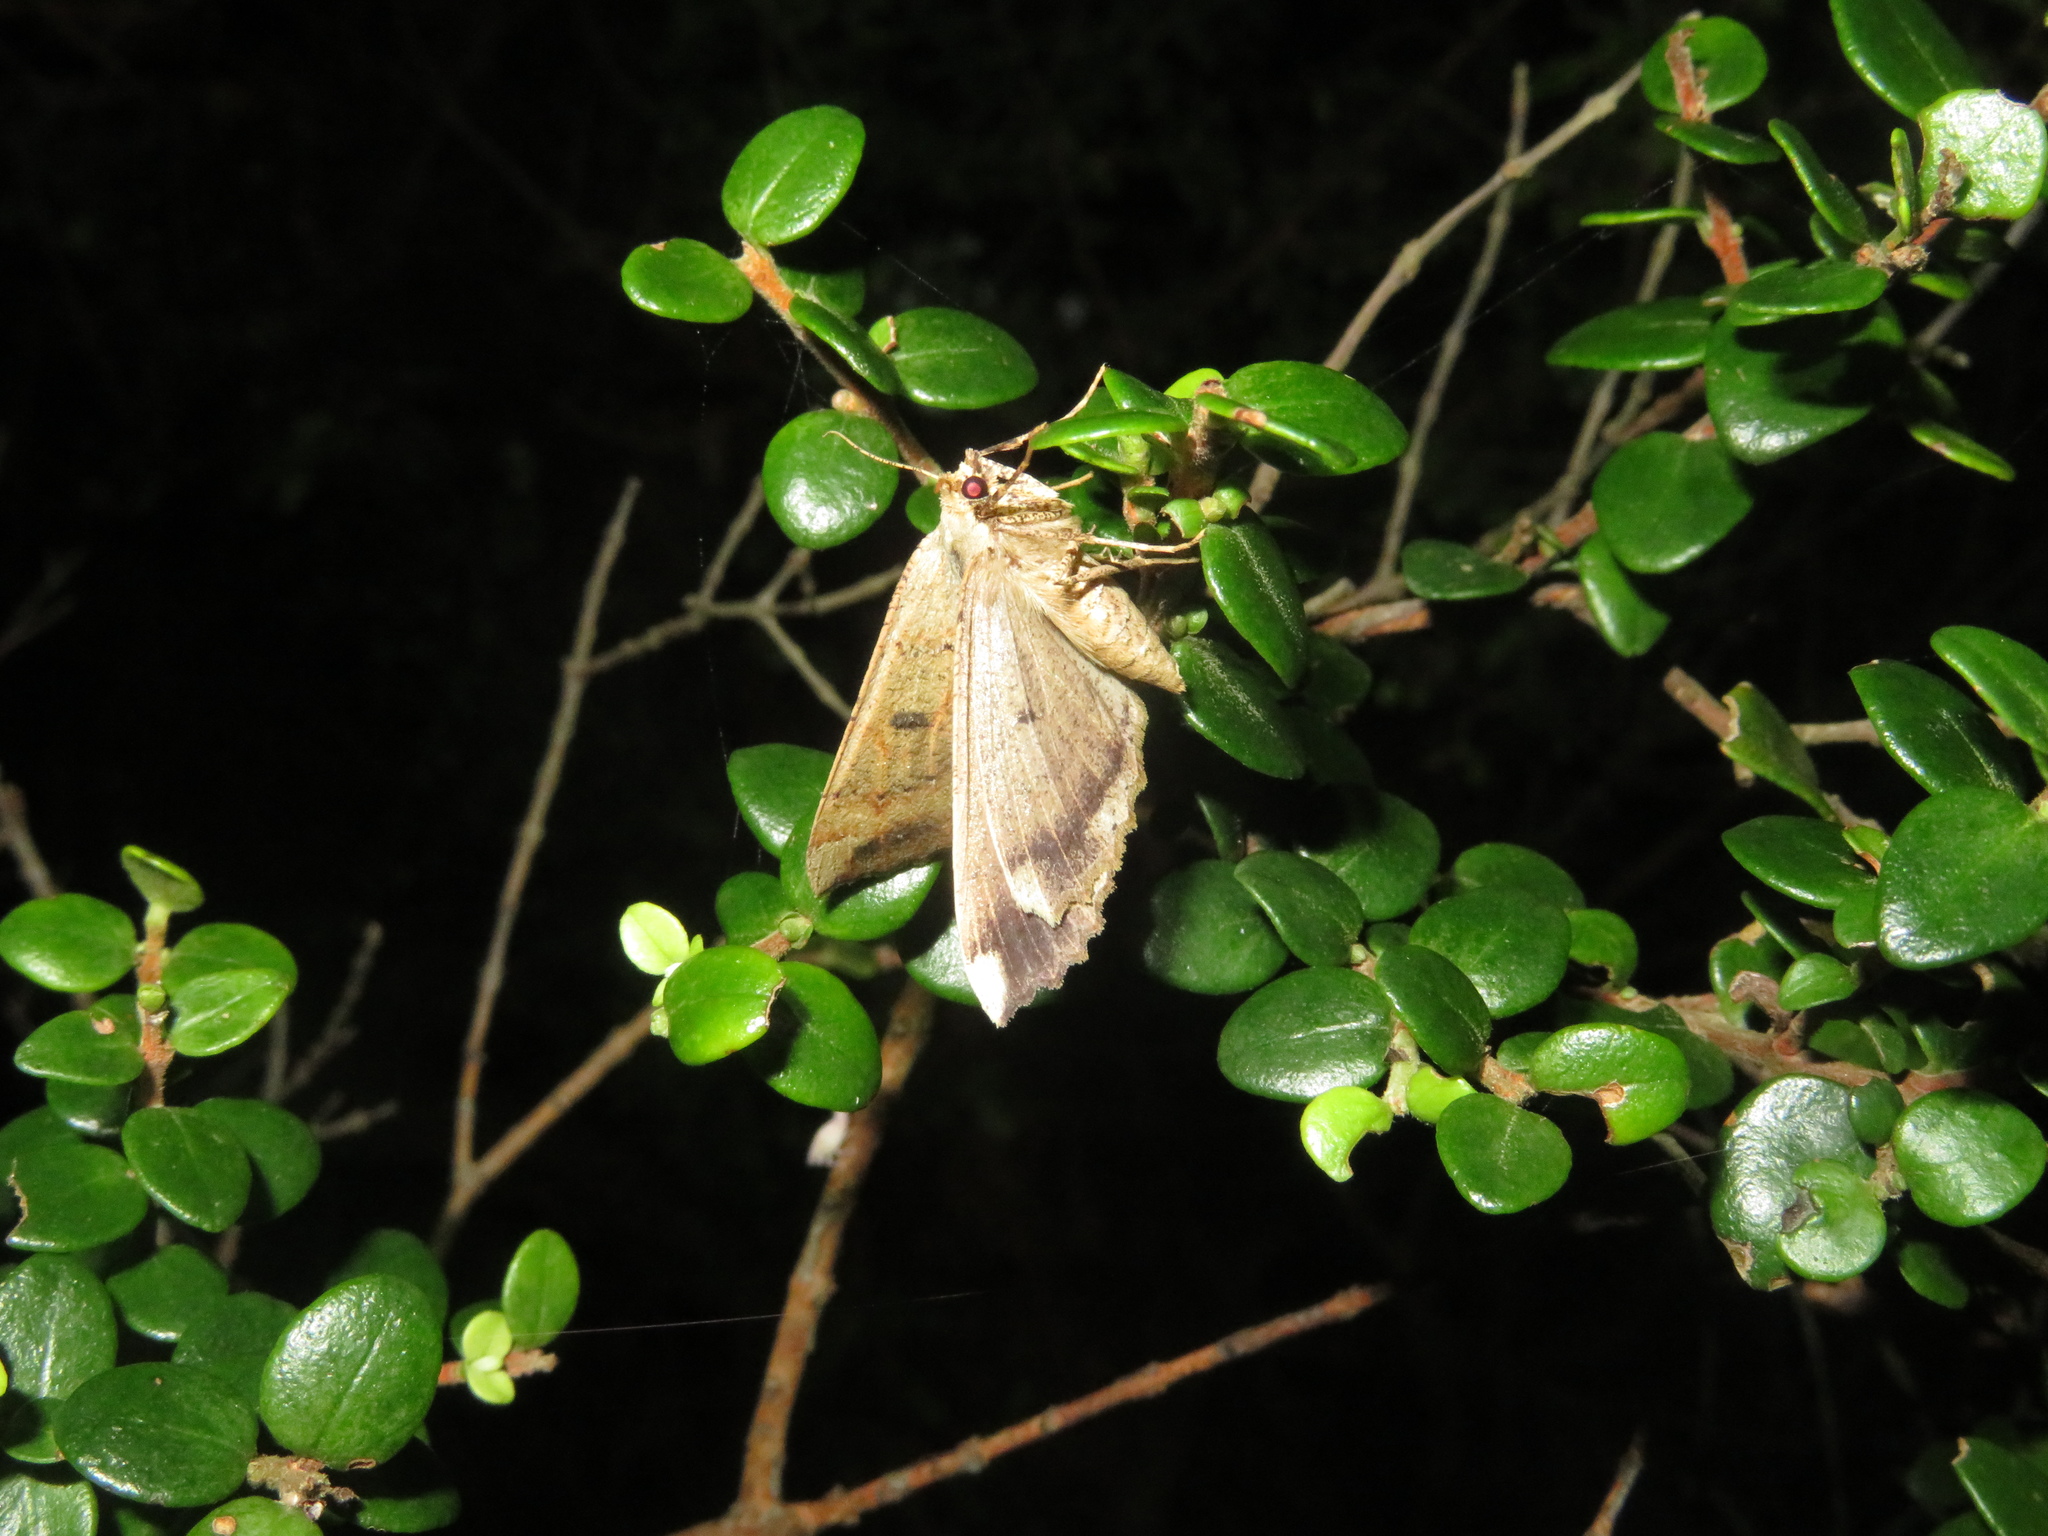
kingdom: Animalia
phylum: Arthropoda
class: Insecta
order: Lepidoptera
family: Geometridae
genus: Cleora
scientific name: Cleora scriptaria
